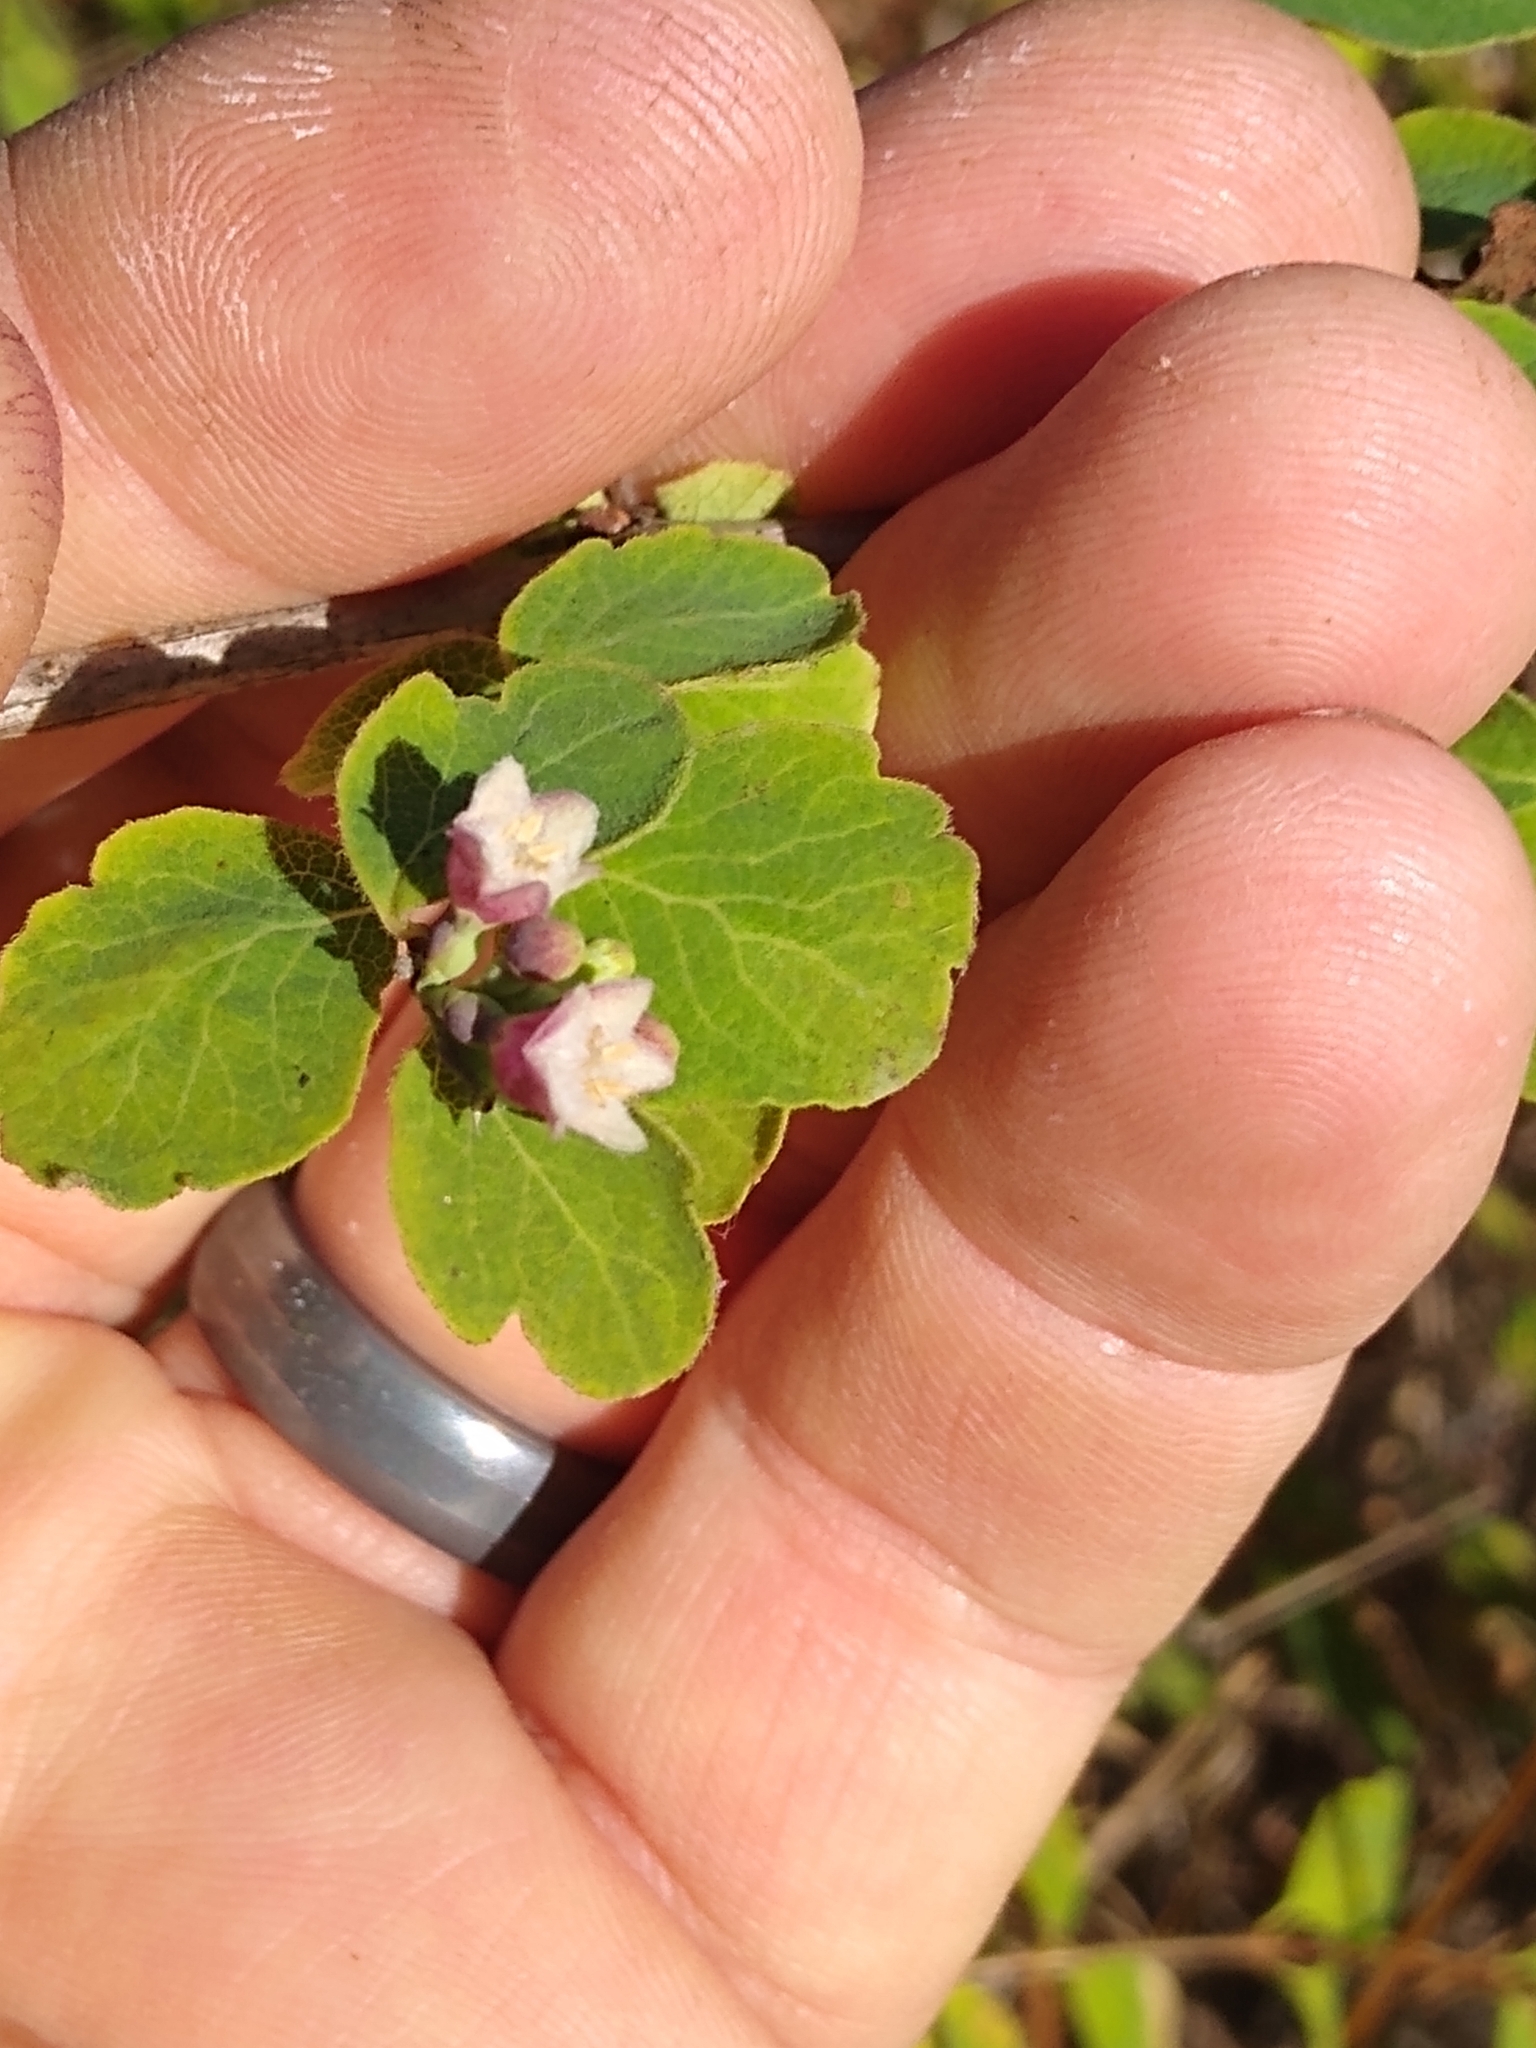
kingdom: Plantae
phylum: Tracheophyta
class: Magnoliopsida
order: Dipsacales
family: Caprifoliaceae
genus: Symphoricarpos
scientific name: Symphoricarpos albus
